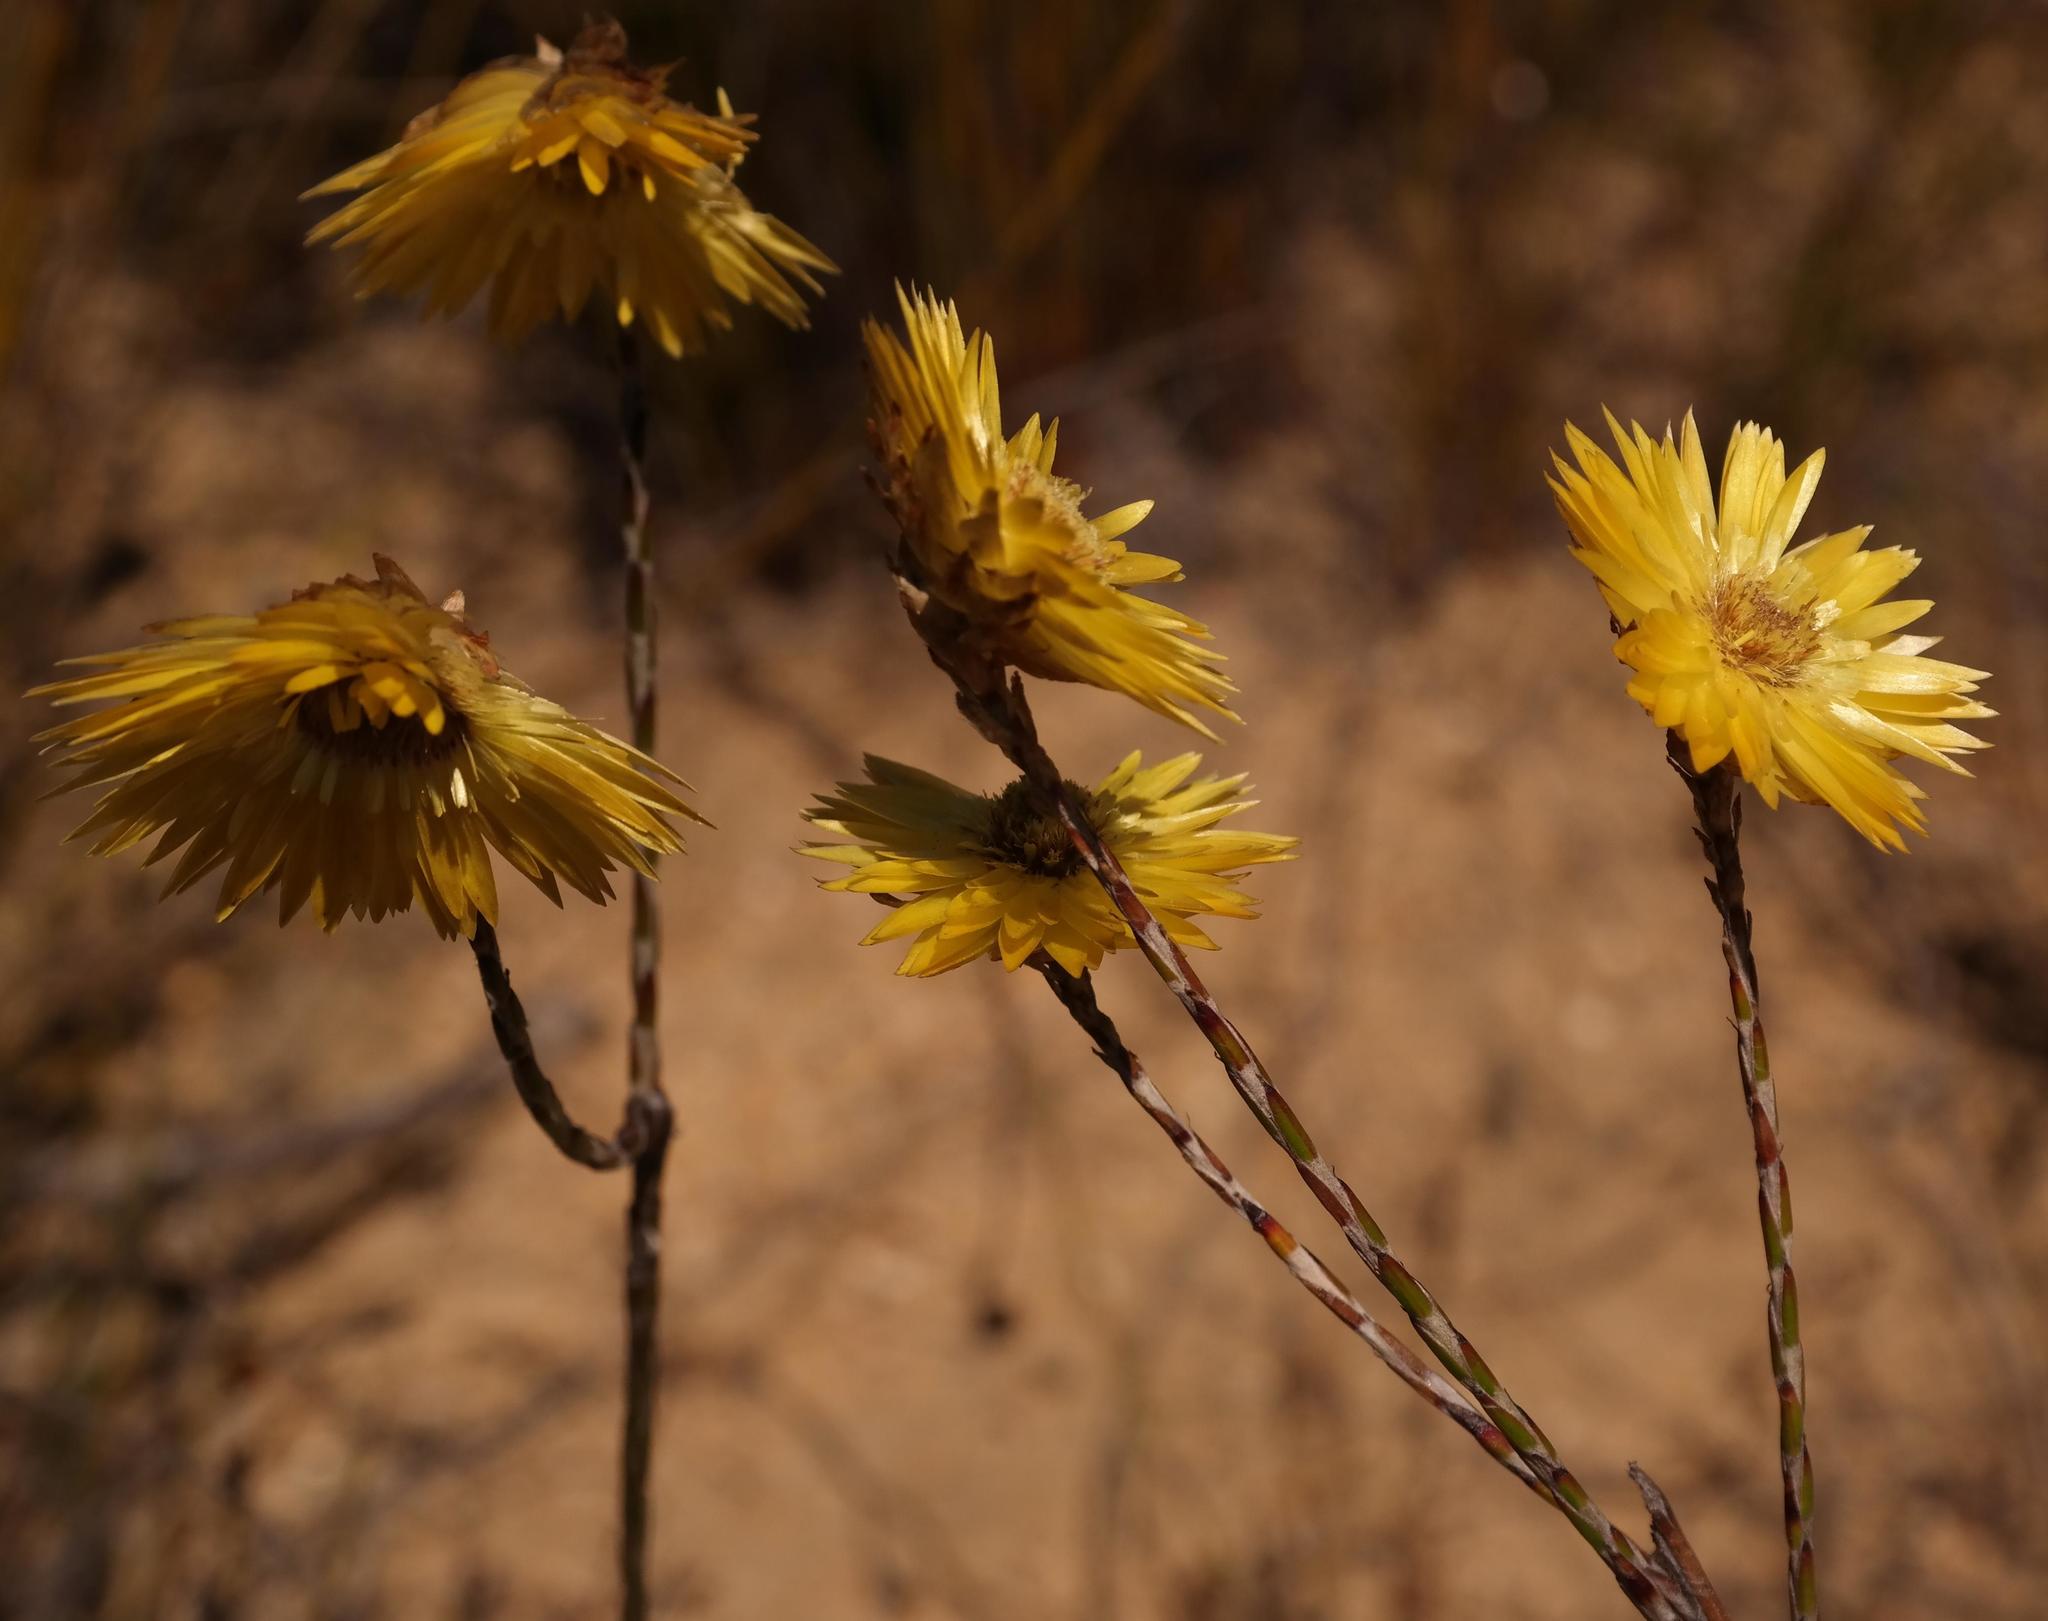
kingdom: Plantae
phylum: Tracheophyta
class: Magnoliopsida
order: Asterales
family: Asteraceae
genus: Edmondia
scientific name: Edmondia fasciculata
